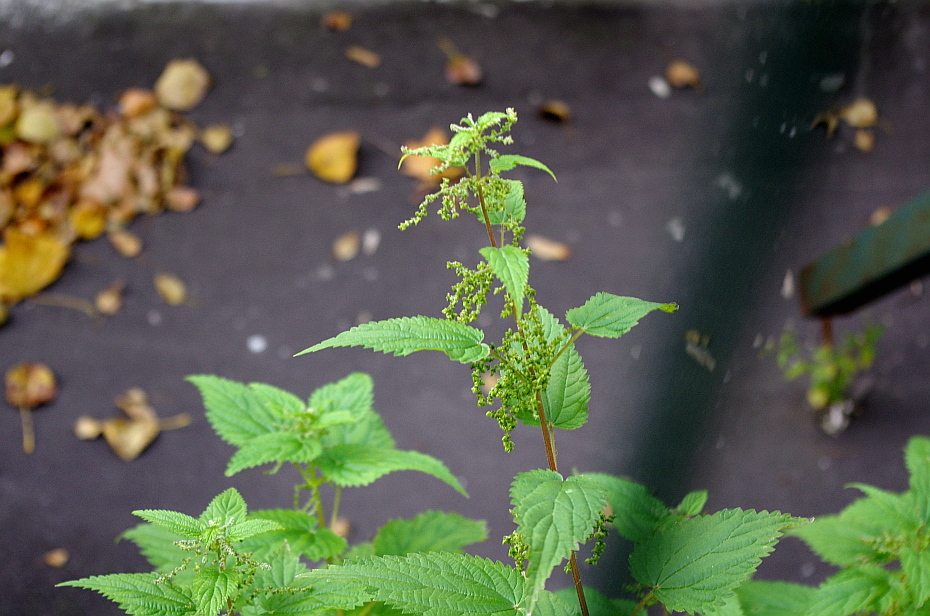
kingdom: Plantae
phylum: Tracheophyta
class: Magnoliopsida
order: Rosales
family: Urticaceae
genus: Urtica
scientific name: Urtica dioica
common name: Common nettle
